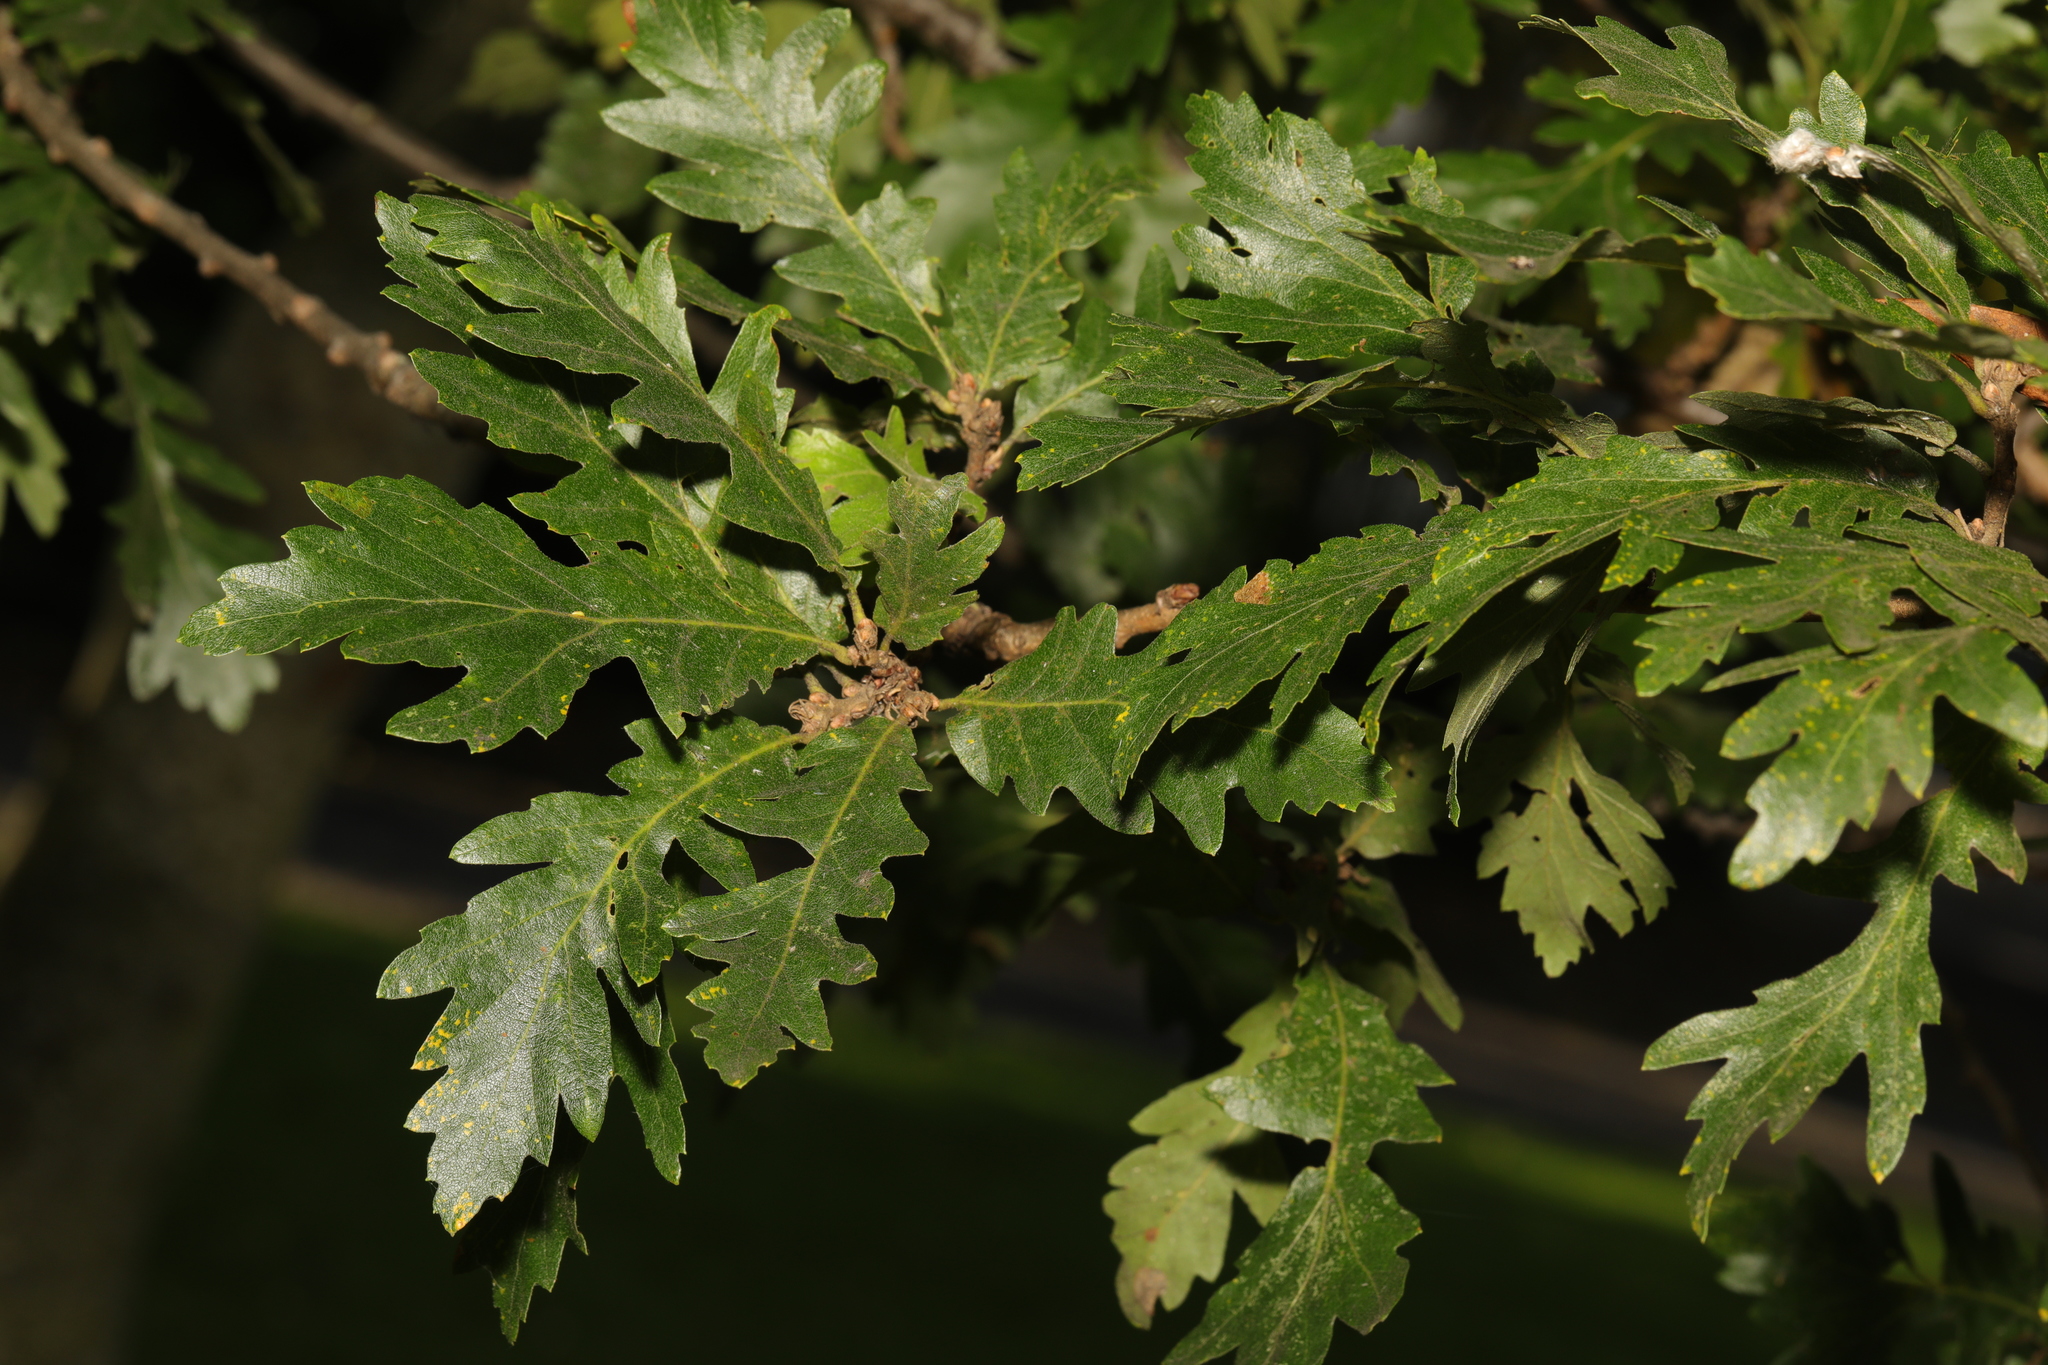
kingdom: Plantae
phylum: Tracheophyta
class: Magnoliopsida
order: Fagales
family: Fagaceae
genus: Quercus
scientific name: Quercus cerris
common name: Turkey oak
